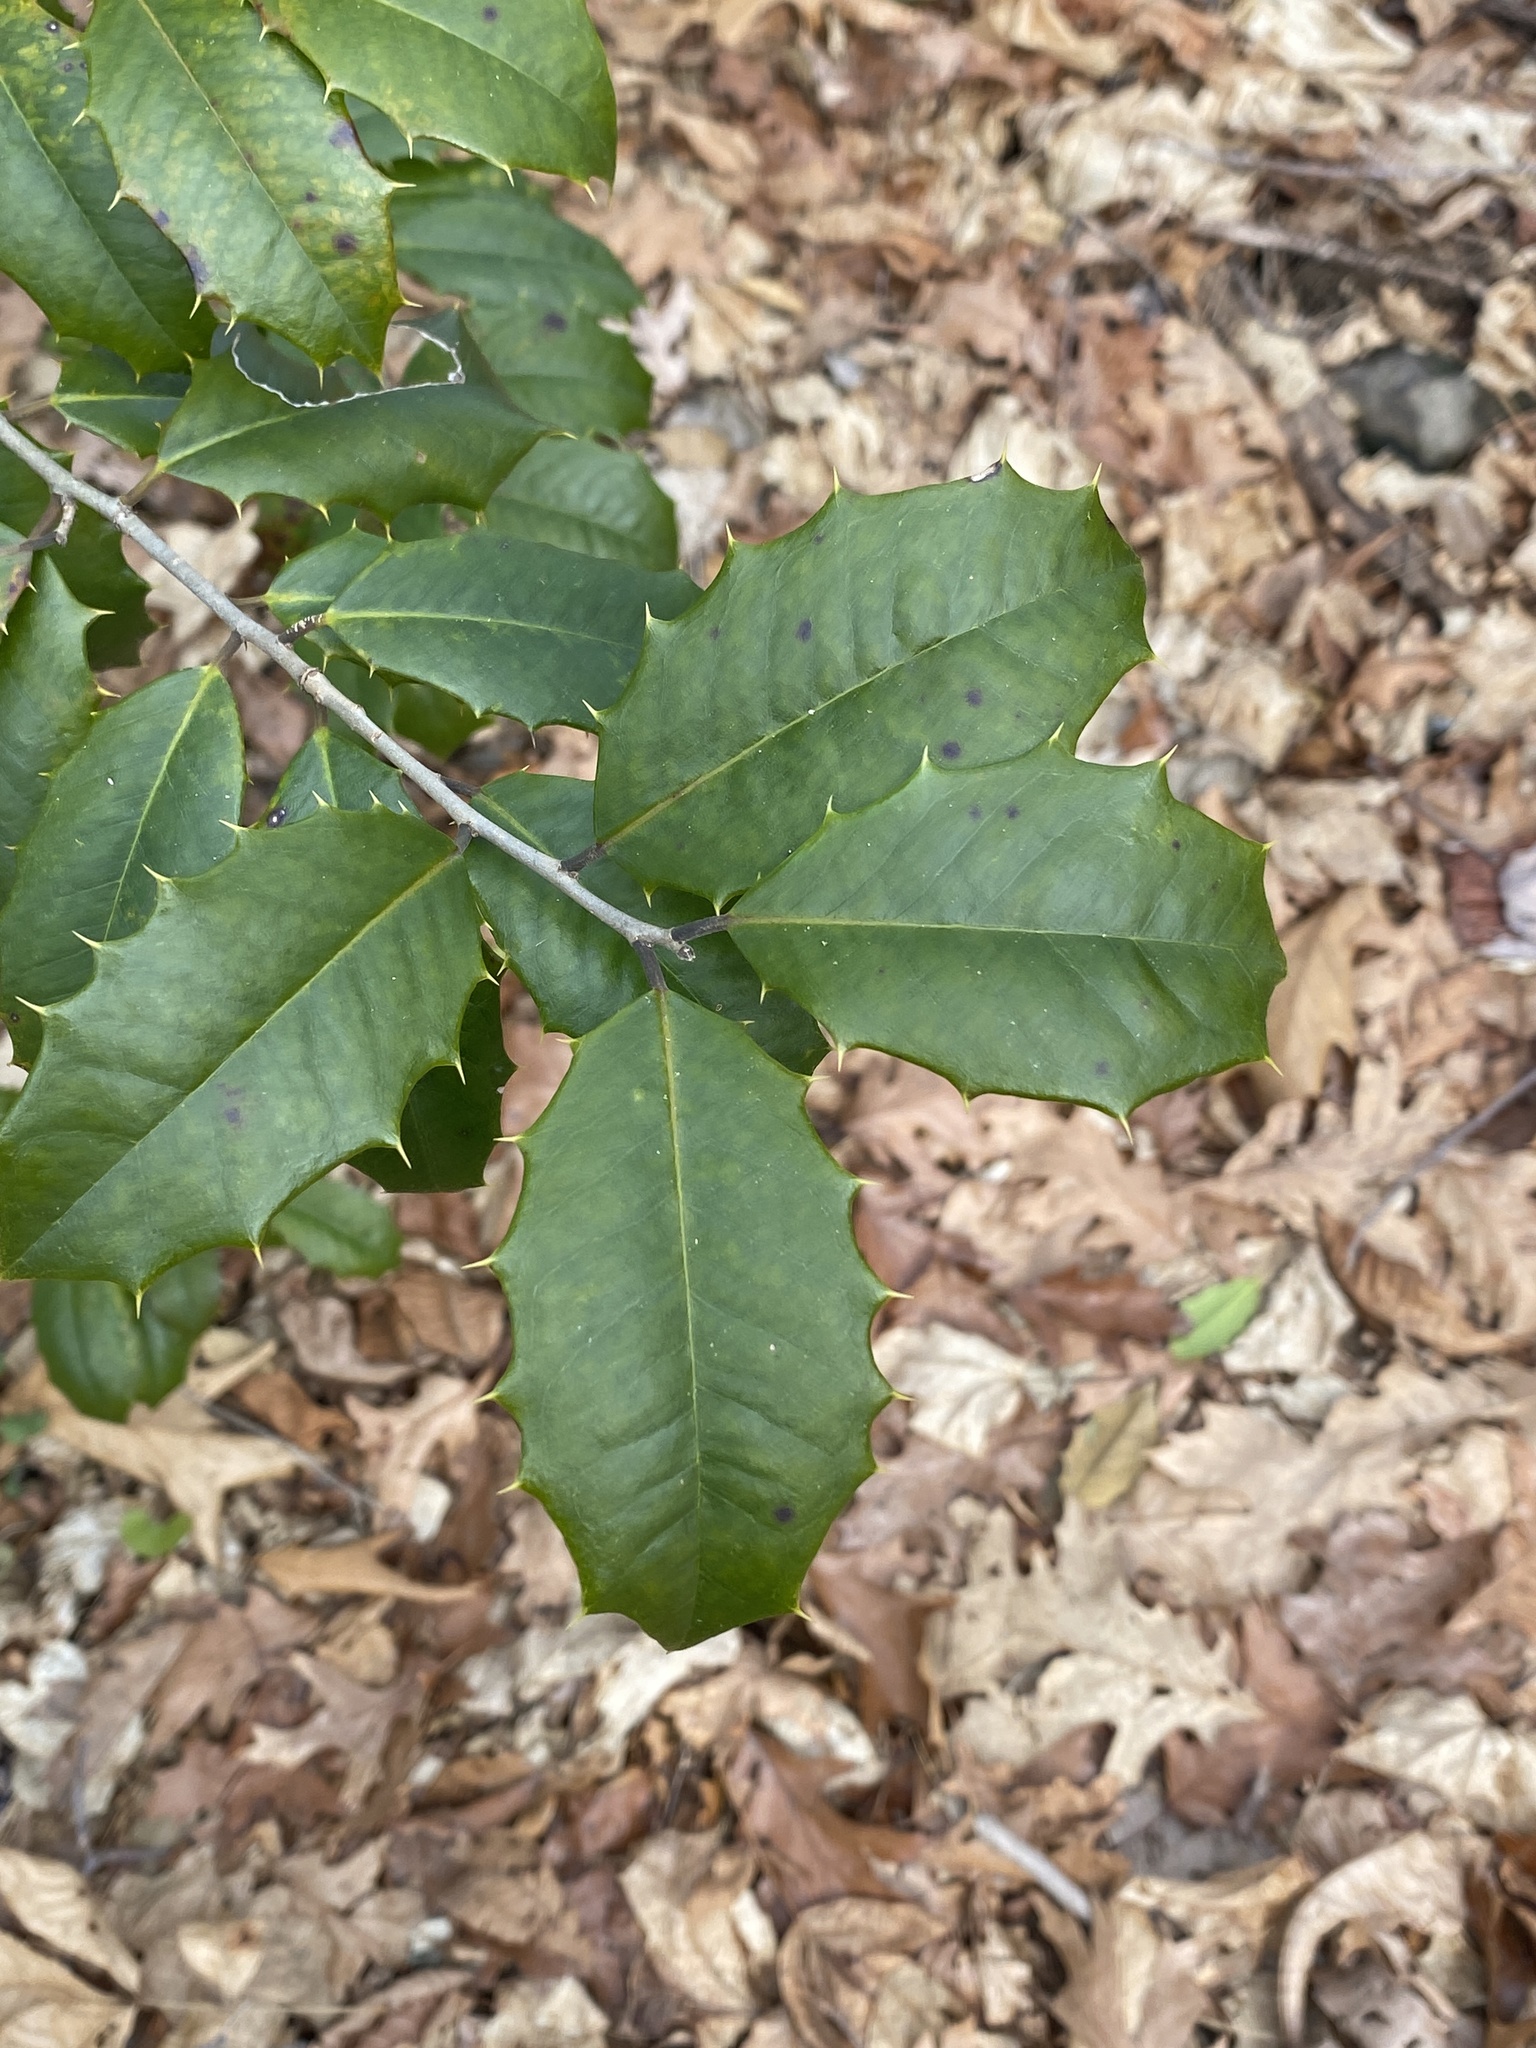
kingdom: Plantae
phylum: Tracheophyta
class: Magnoliopsida
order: Aquifoliales
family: Aquifoliaceae
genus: Ilex
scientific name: Ilex opaca
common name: American holly
